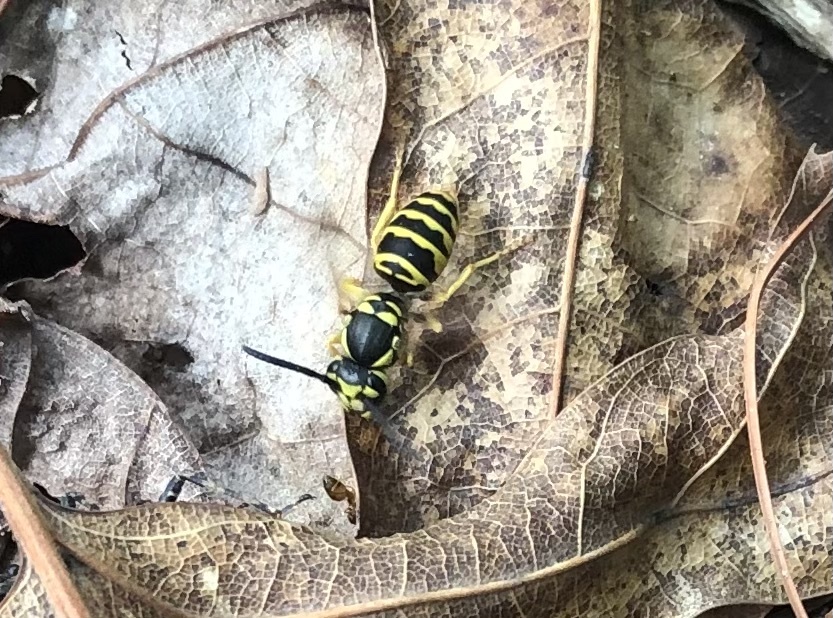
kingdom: Animalia
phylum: Arthropoda
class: Insecta
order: Hymenoptera
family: Vespidae
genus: Vespula
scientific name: Vespula maculifrons
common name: Eastern yellowjacket
